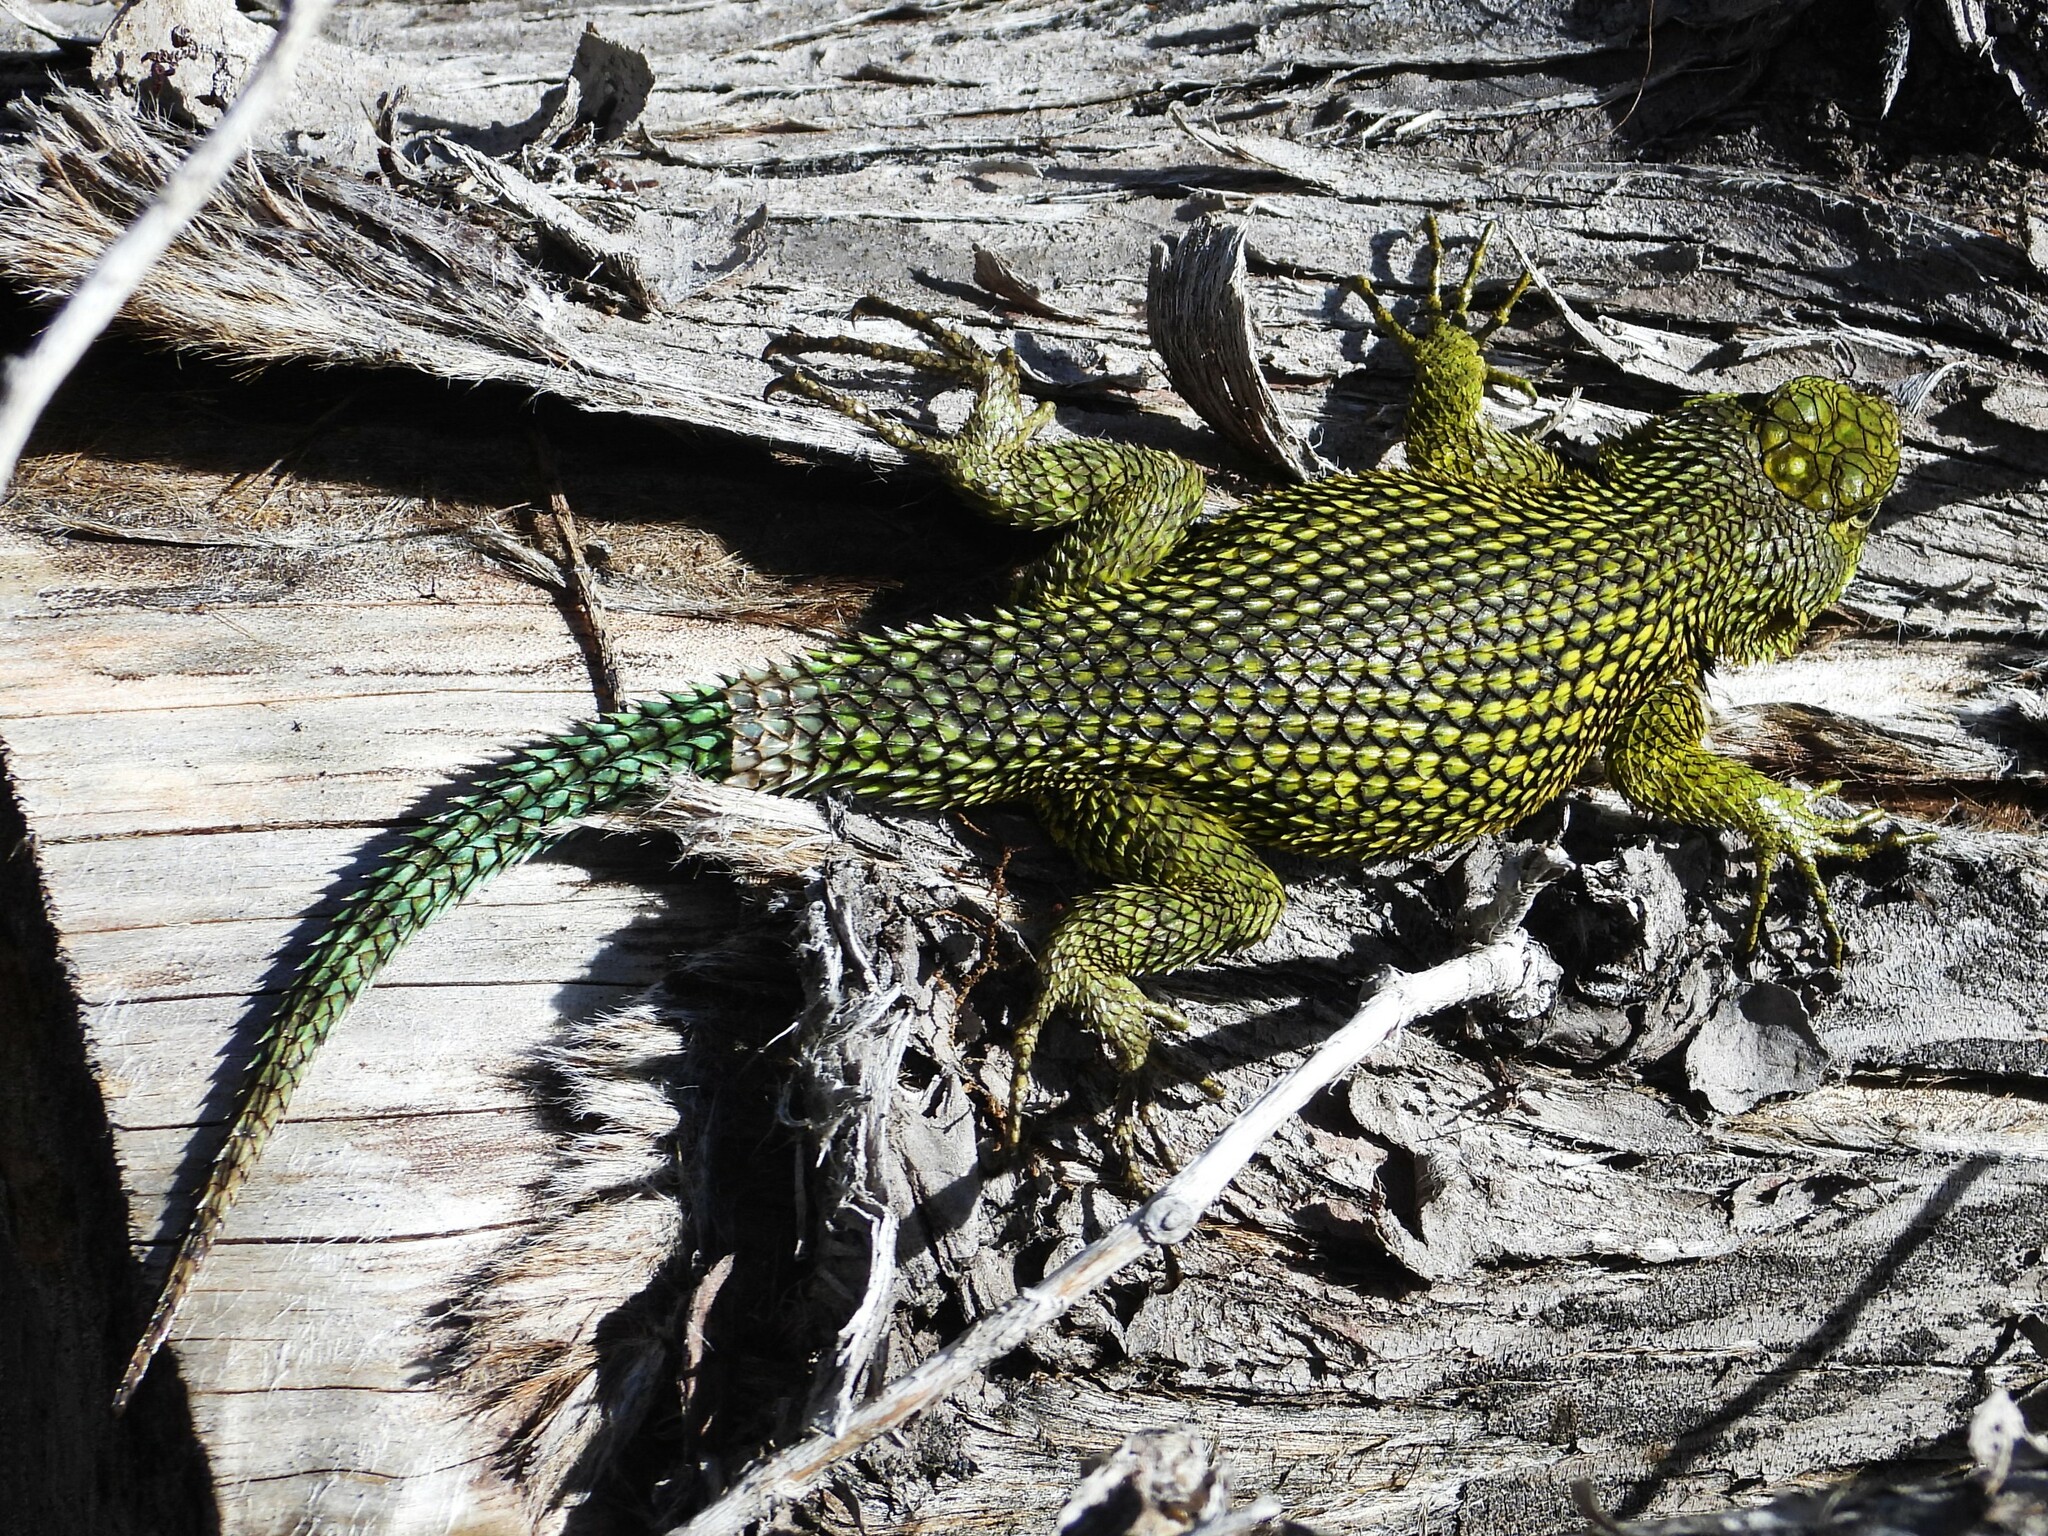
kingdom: Animalia
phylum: Chordata
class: Squamata
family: Phrynosomatidae
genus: Sceloporus
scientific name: Sceloporus malachiticus
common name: Green spiny lizard
